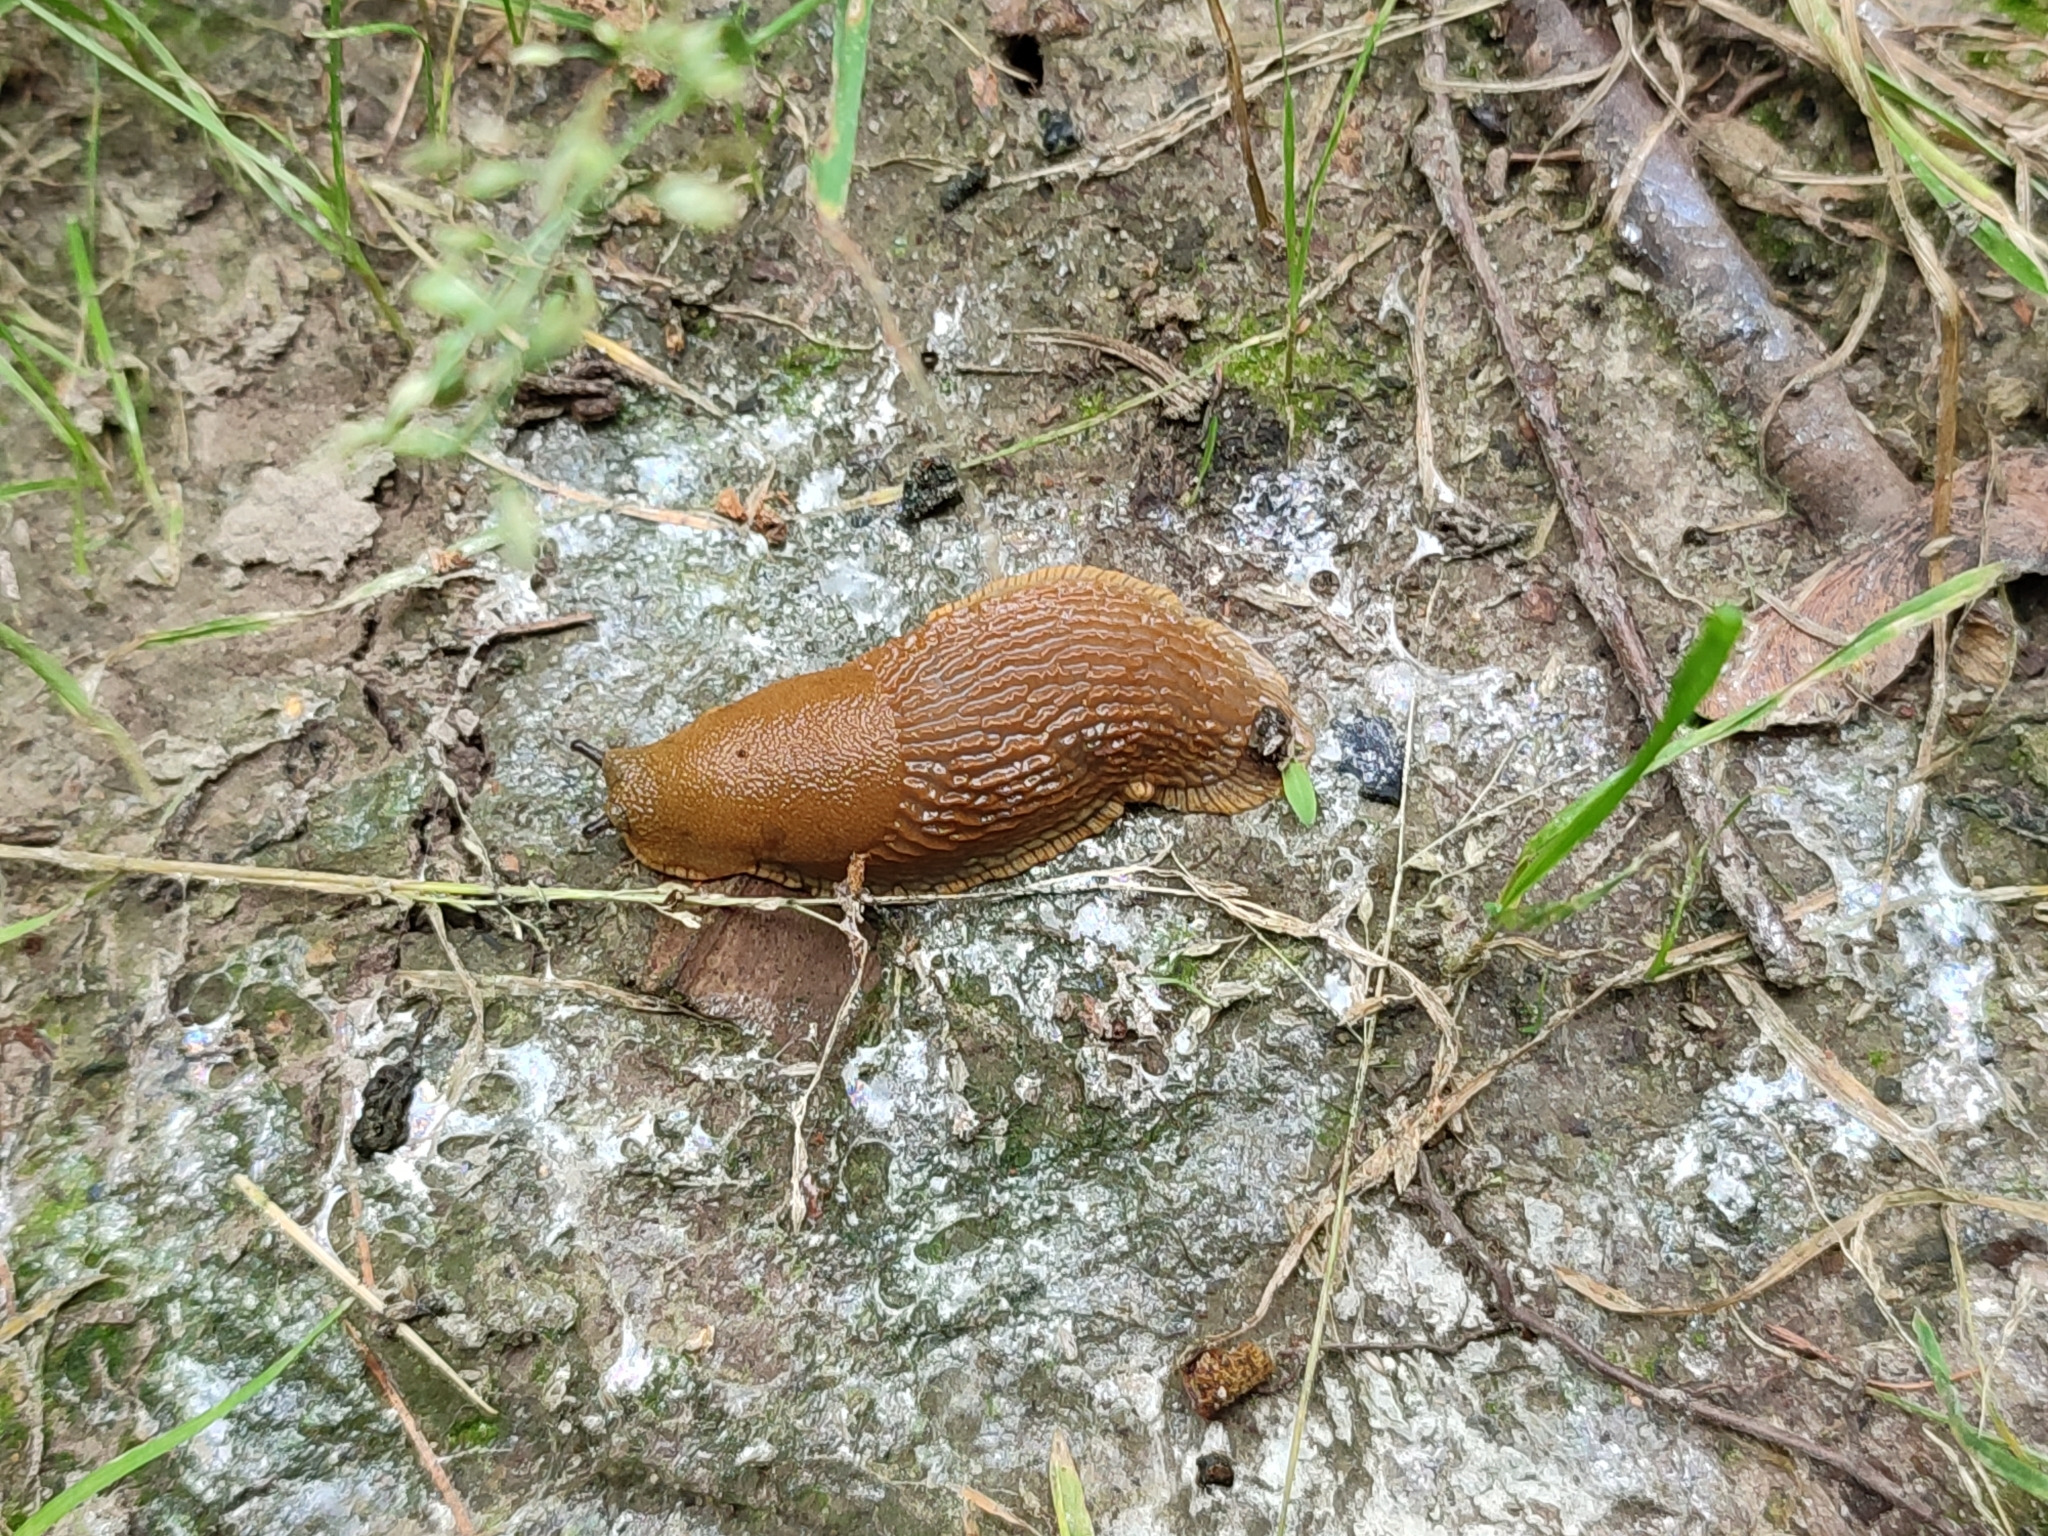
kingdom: Animalia
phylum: Mollusca
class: Gastropoda
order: Stylommatophora
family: Arionidae
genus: Arion
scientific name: Arion vulgaris
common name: Lusitanian slug
